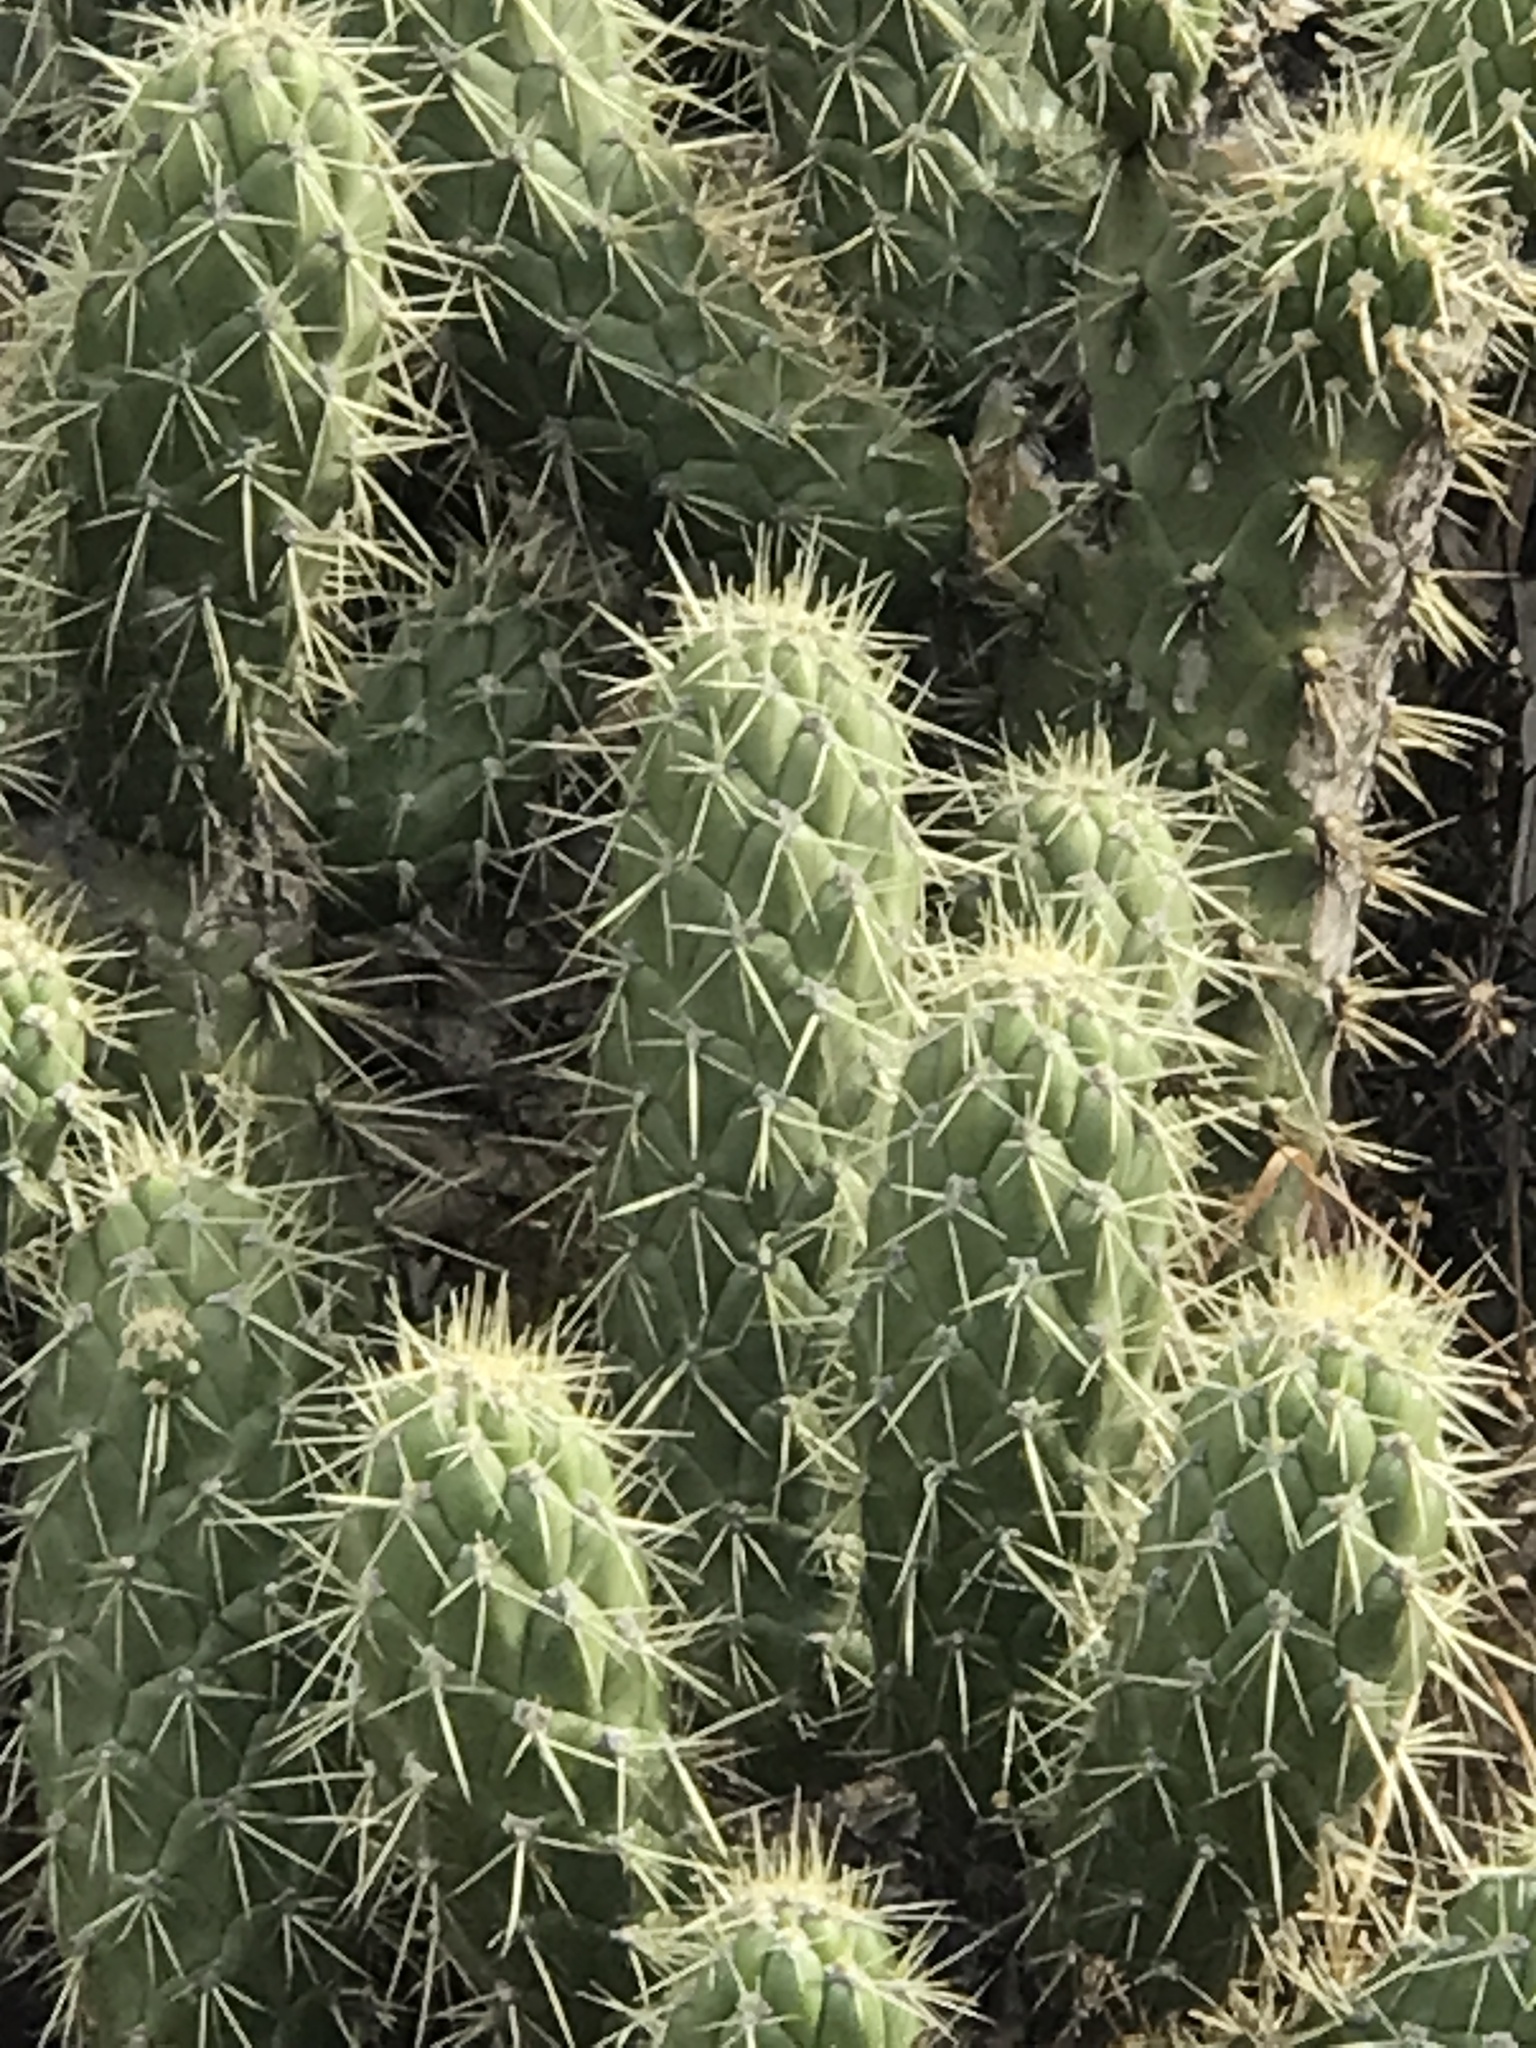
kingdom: Plantae
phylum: Tracheophyta
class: Magnoliopsida
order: Caryophyllales
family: Cactaceae
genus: Austrocylindropuntia
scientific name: Austrocylindropuntia cylindrica
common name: Cane cactus
